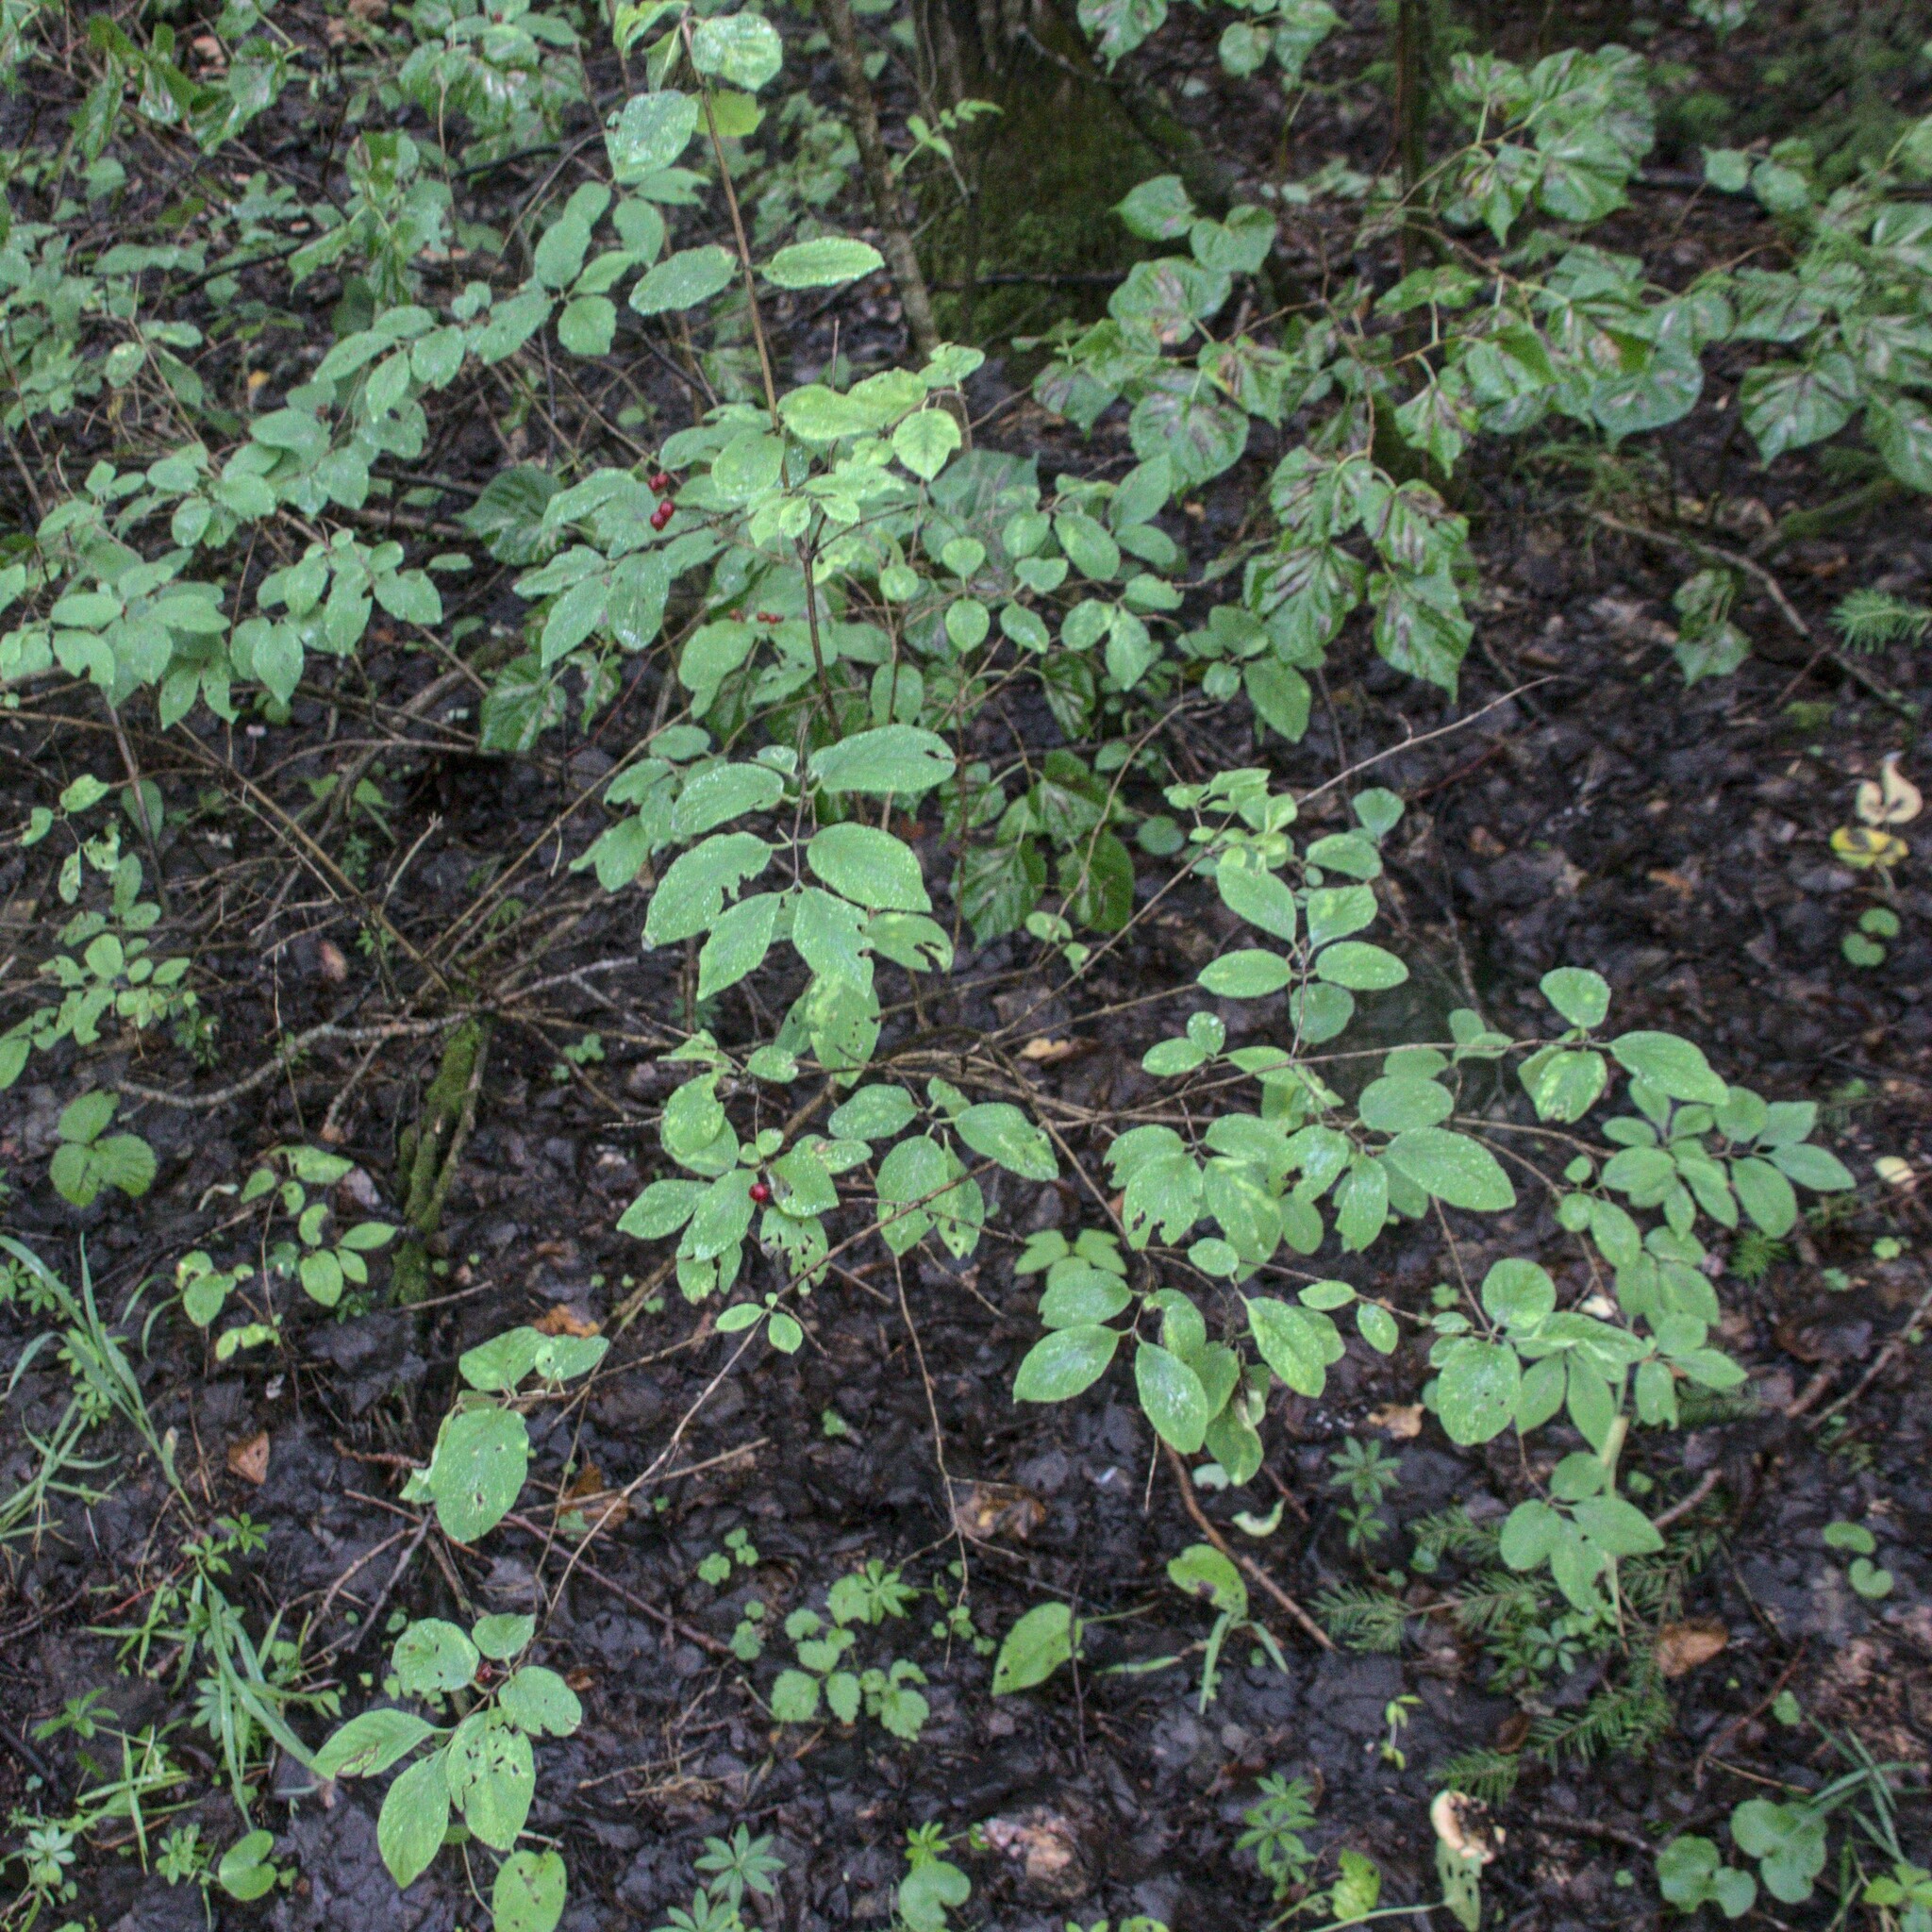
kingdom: Plantae
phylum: Tracheophyta
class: Magnoliopsida
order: Dipsacales
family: Caprifoliaceae
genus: Lonicera
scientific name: Lonicera xylosteum
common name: Fly honeysuckle
